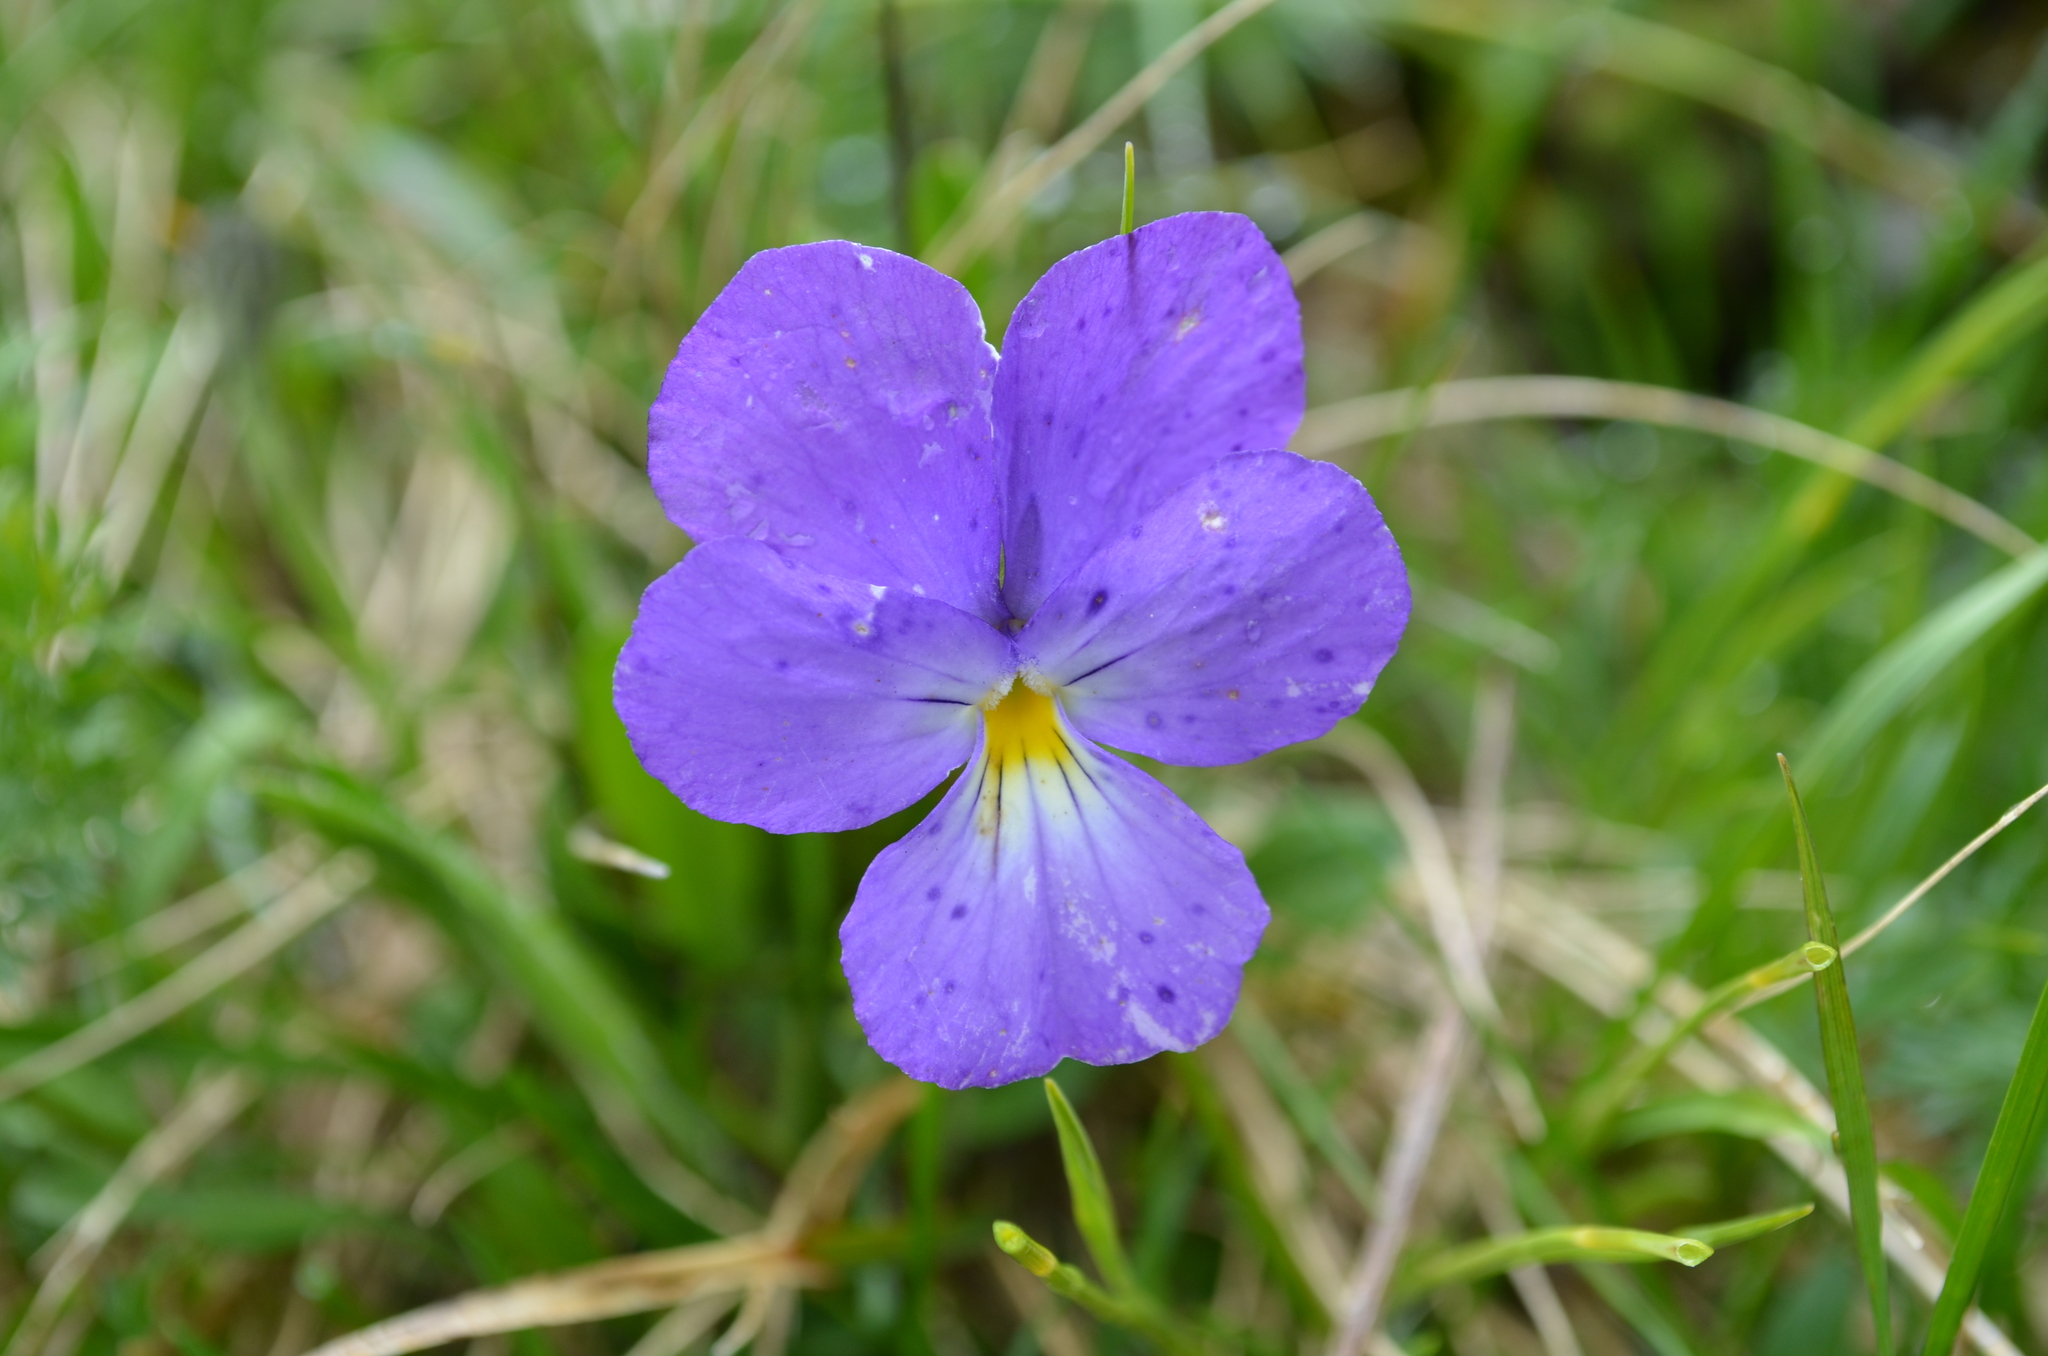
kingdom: Plantae
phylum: Tracheophyta
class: Magnoliopsida
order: Malpighiales
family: Violaceae
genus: Viola
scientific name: Viola calcarata
